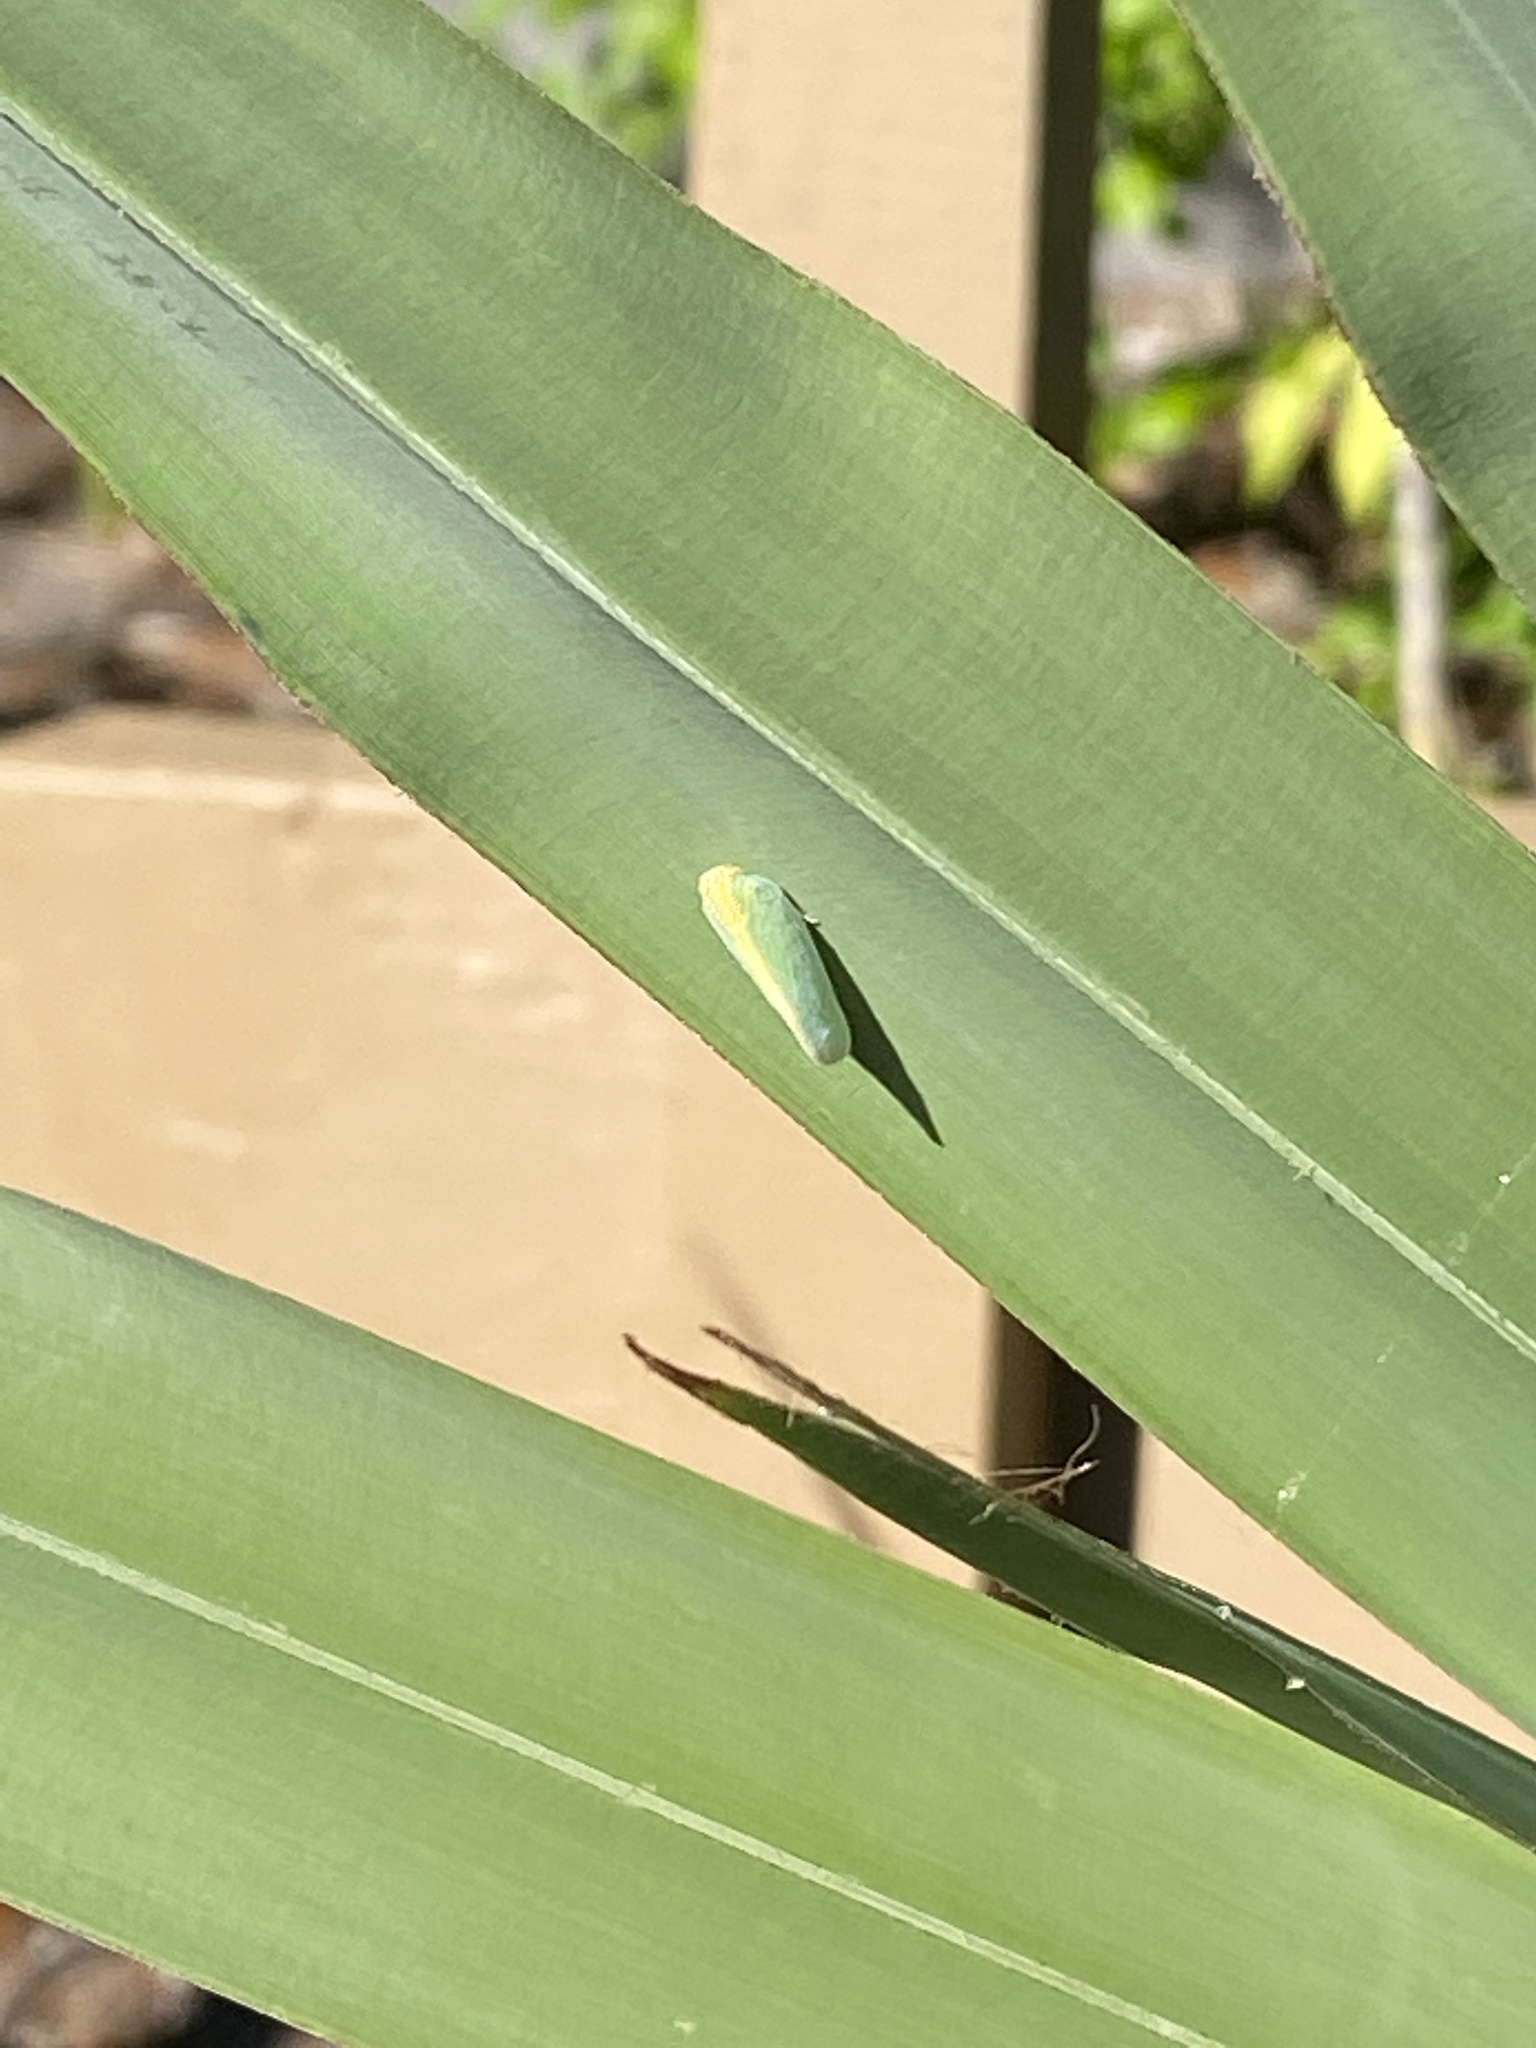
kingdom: Animalia
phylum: Arthropoda
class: Insecta
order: Hemiptera
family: Flatidae
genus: Ormenaria
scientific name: Ormenaria rufifascia
